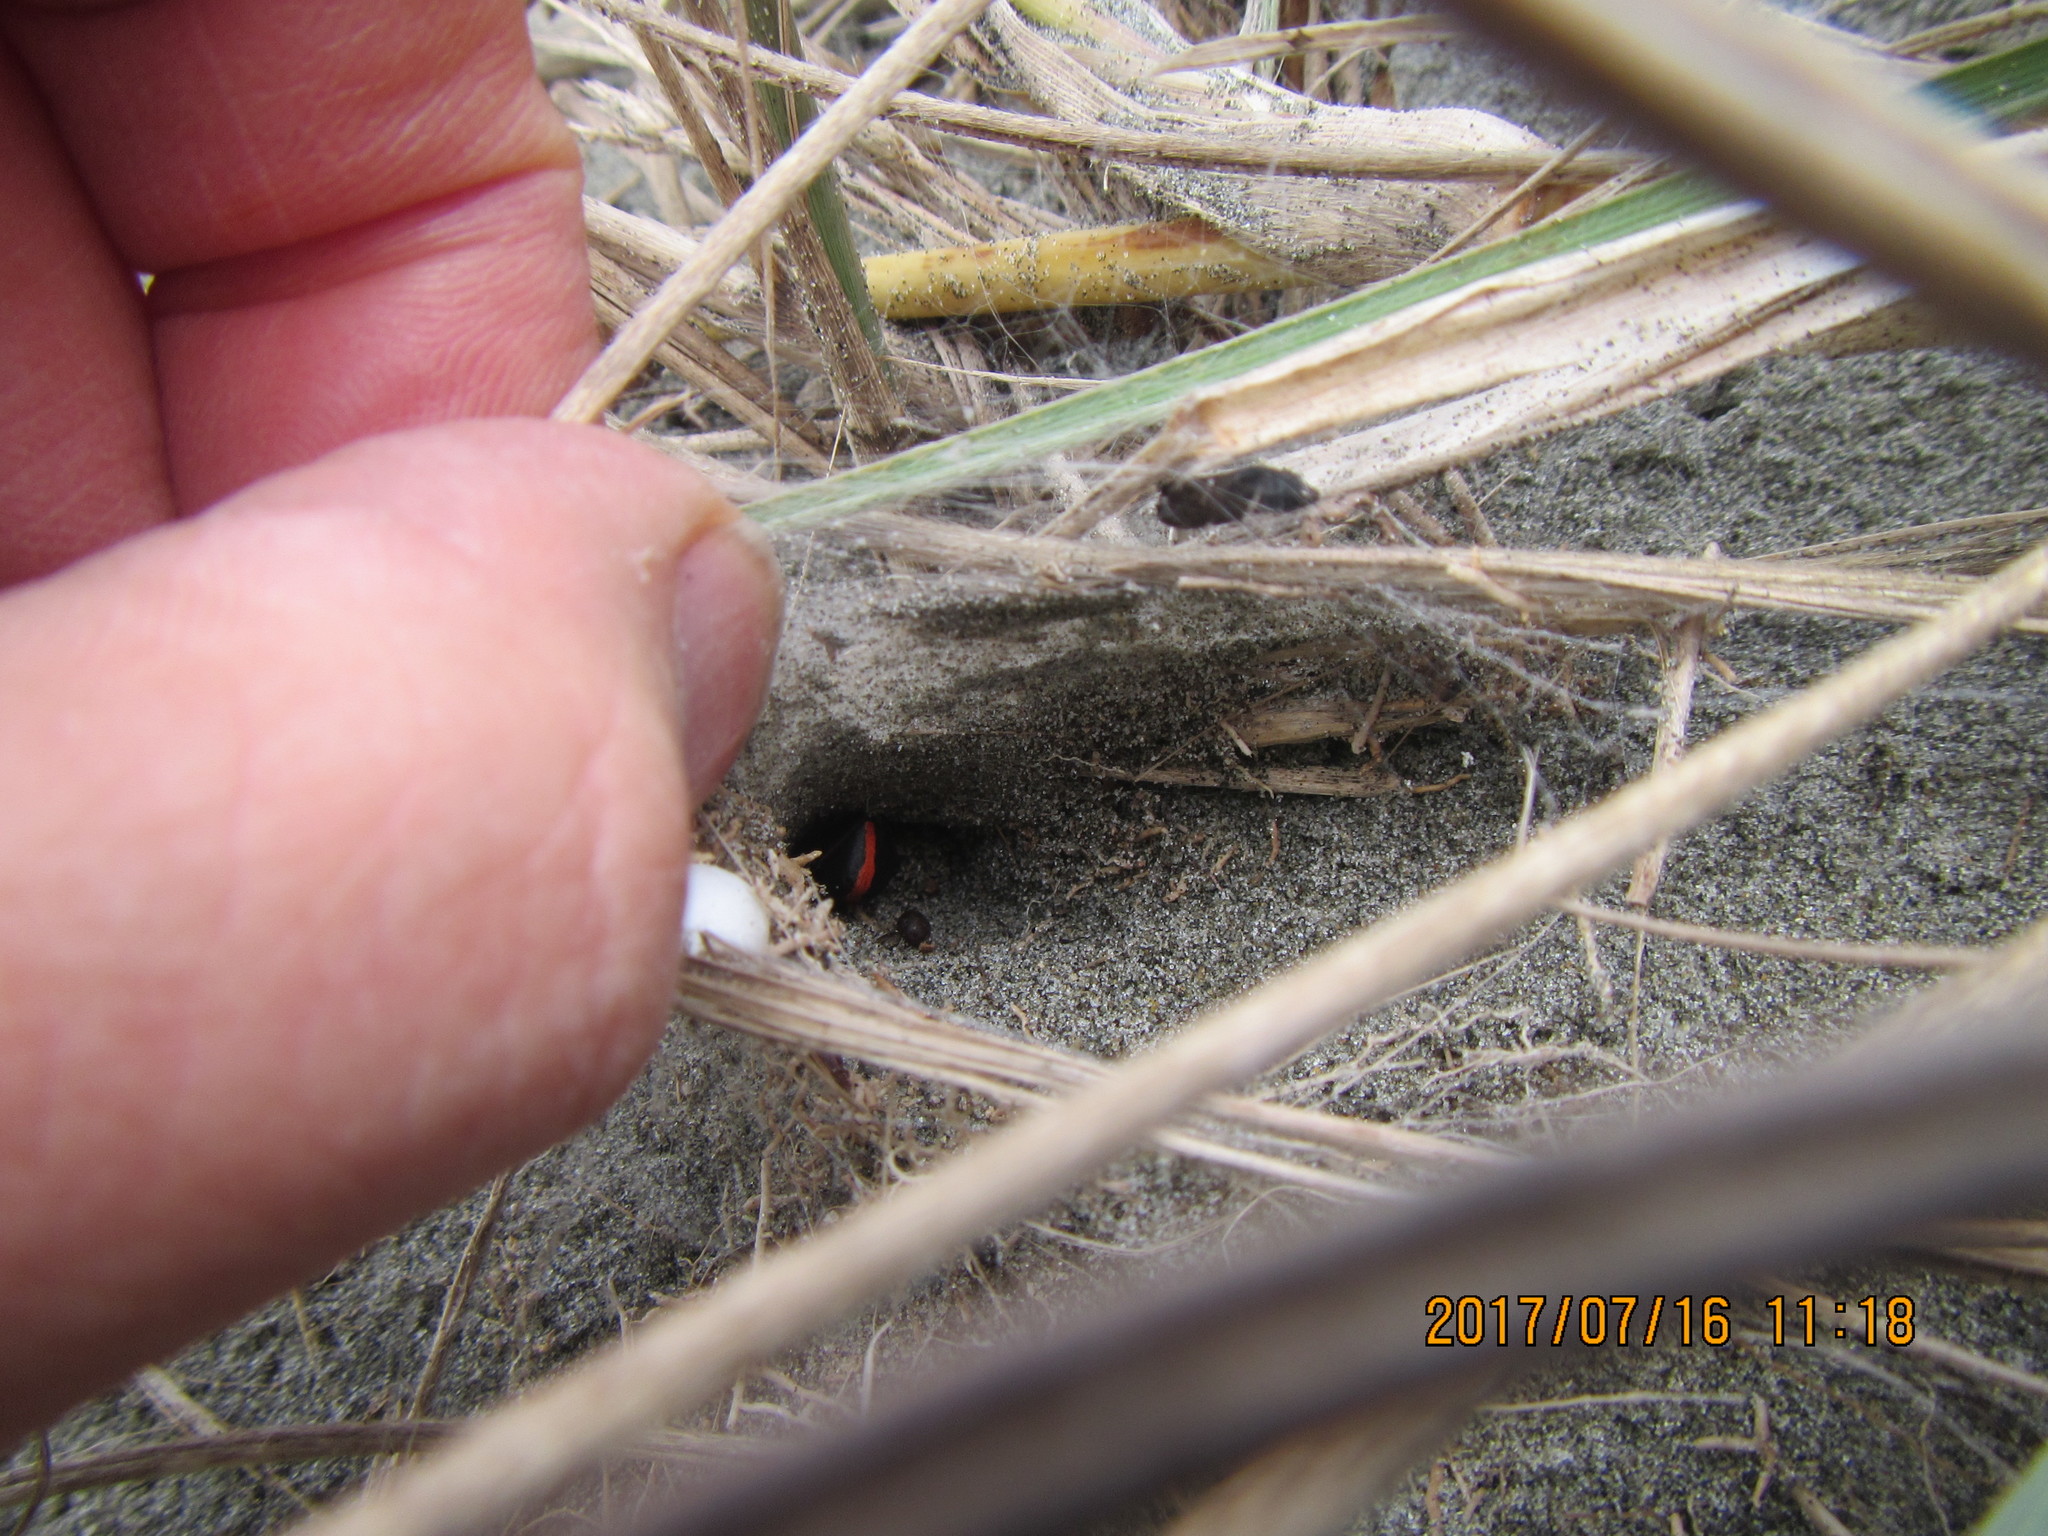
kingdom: Animalia
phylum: Arthropoda
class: Arachnida
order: Araneae
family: Theridiidae
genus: Latrodectus
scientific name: Latrodectus katipo
